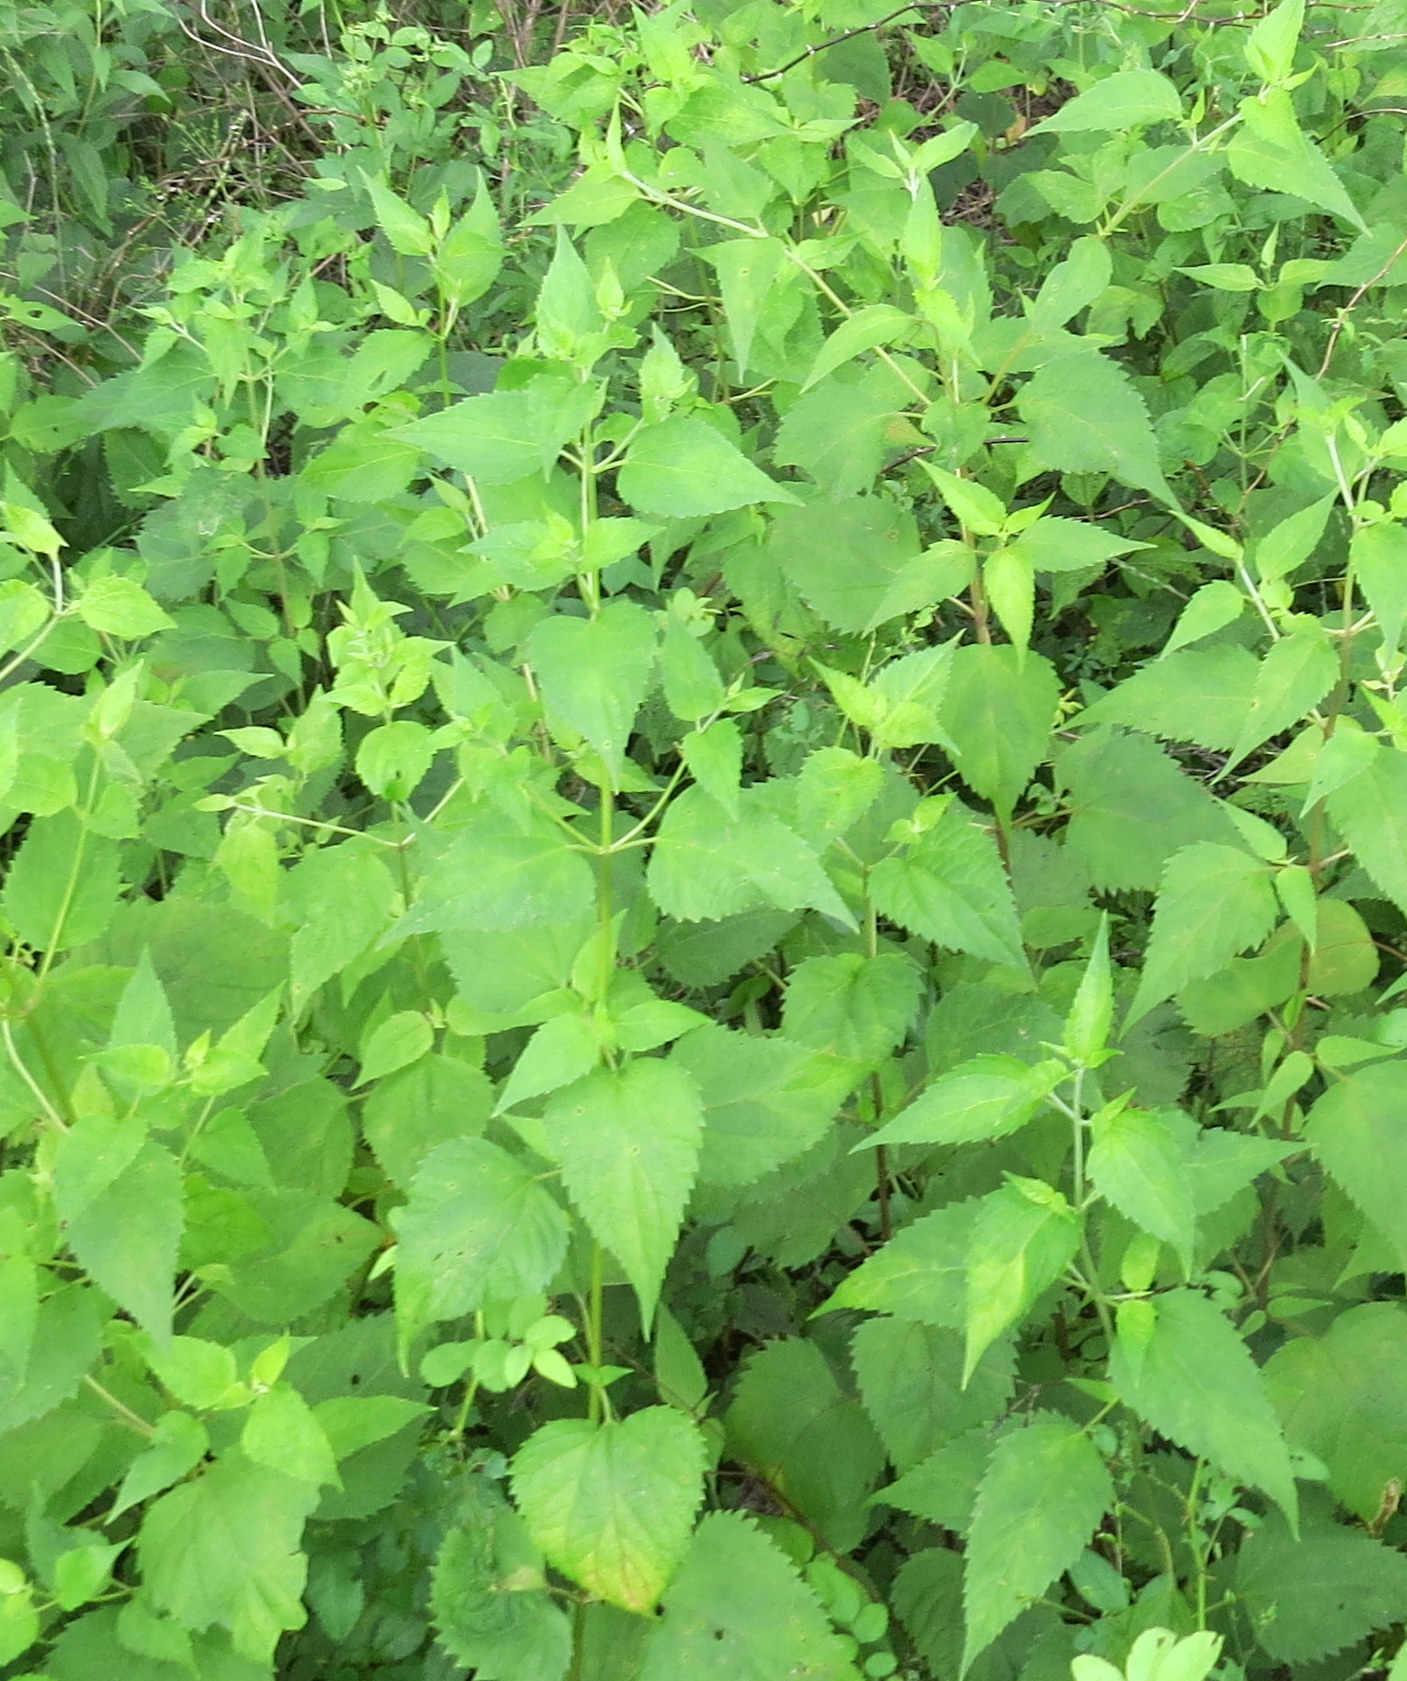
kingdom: Plantae
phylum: Tracheophyta
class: Magnoliopsida
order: Asterales
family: Asteraceae
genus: Ageratina
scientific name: Ageratina altissima
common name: White snakeroot
